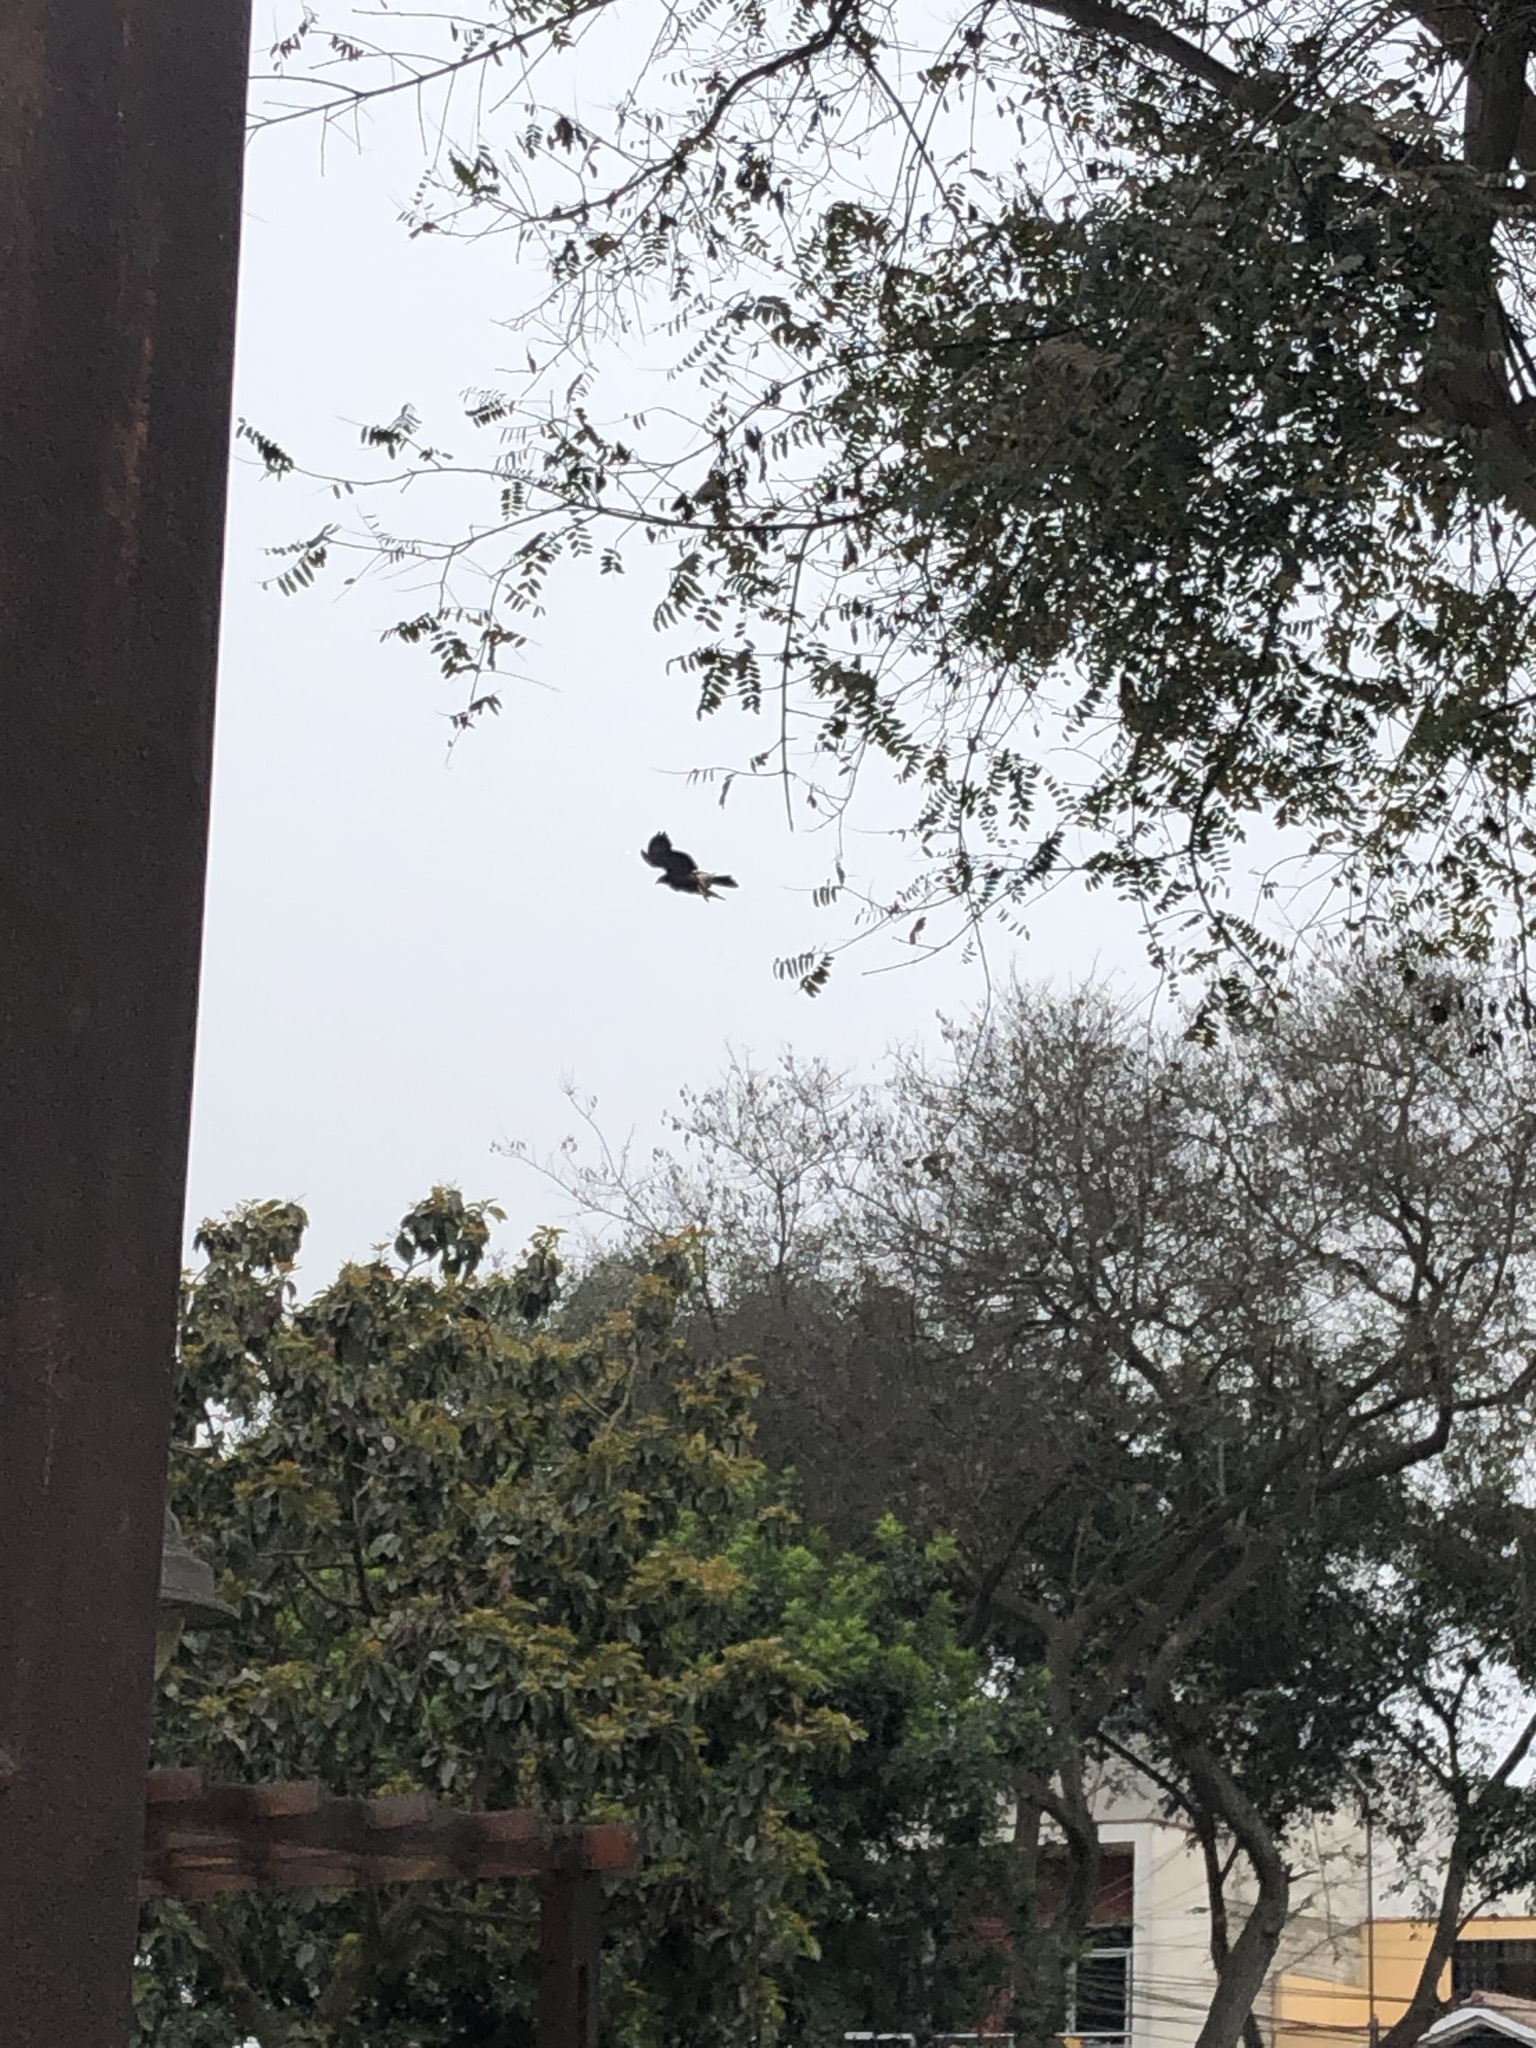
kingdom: Animalia
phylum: Chordata
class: Aves
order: Accipitriformes
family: Accipitridae
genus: Parabuteo
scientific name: Parabuteo unicinctus
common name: Harris's hawk
